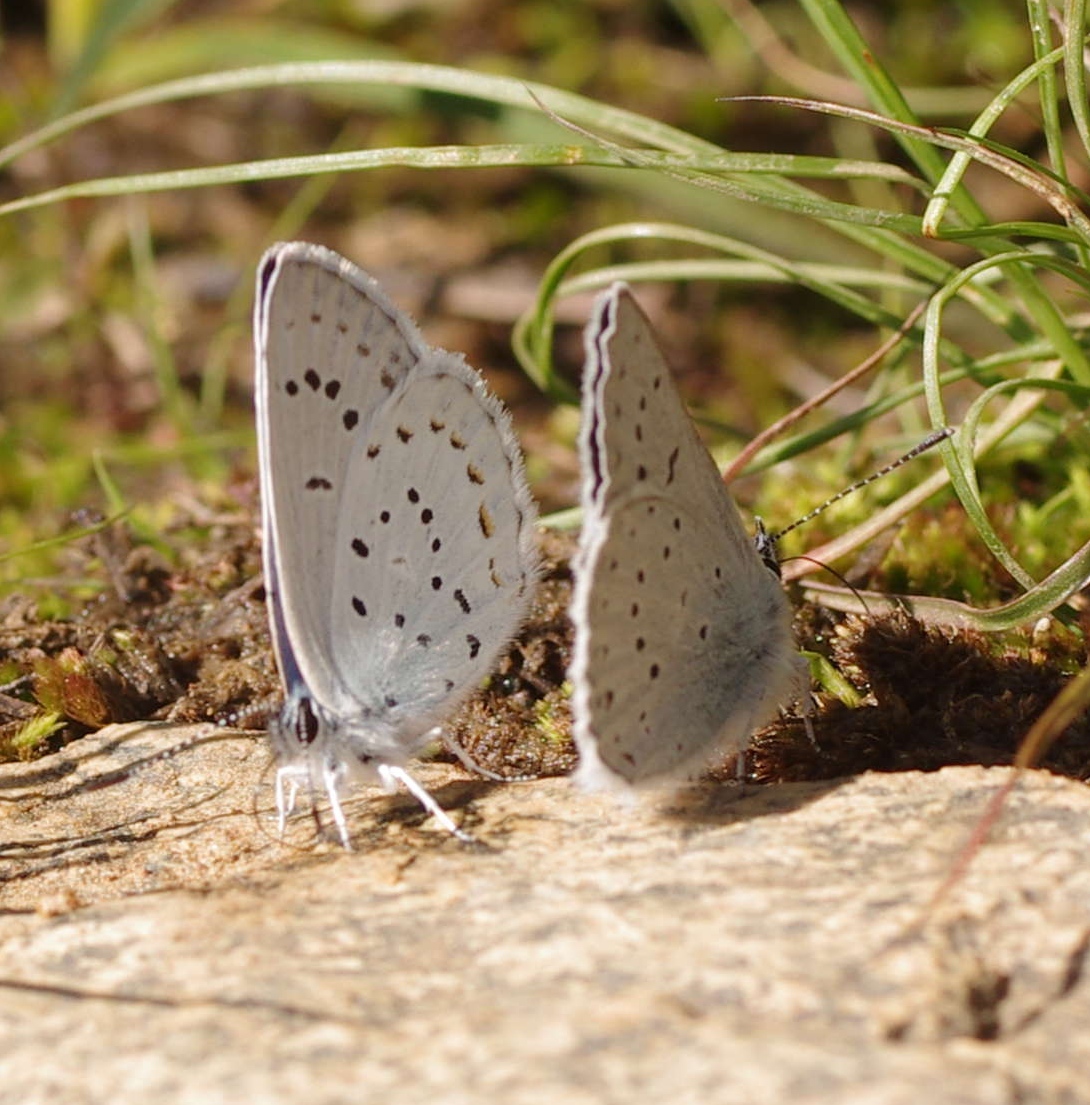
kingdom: Animalia
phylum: Arthropoda
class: Insecta
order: Lepidoptera
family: Lycaenidae
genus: Lycaeides
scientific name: Lycaeides anna
